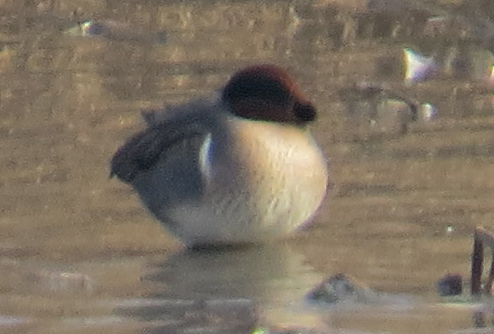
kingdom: Animalia
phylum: Chordata
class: Aves
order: Anseriformes
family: Anatidae
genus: Anas
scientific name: Anas crecca
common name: Eurasian teal
